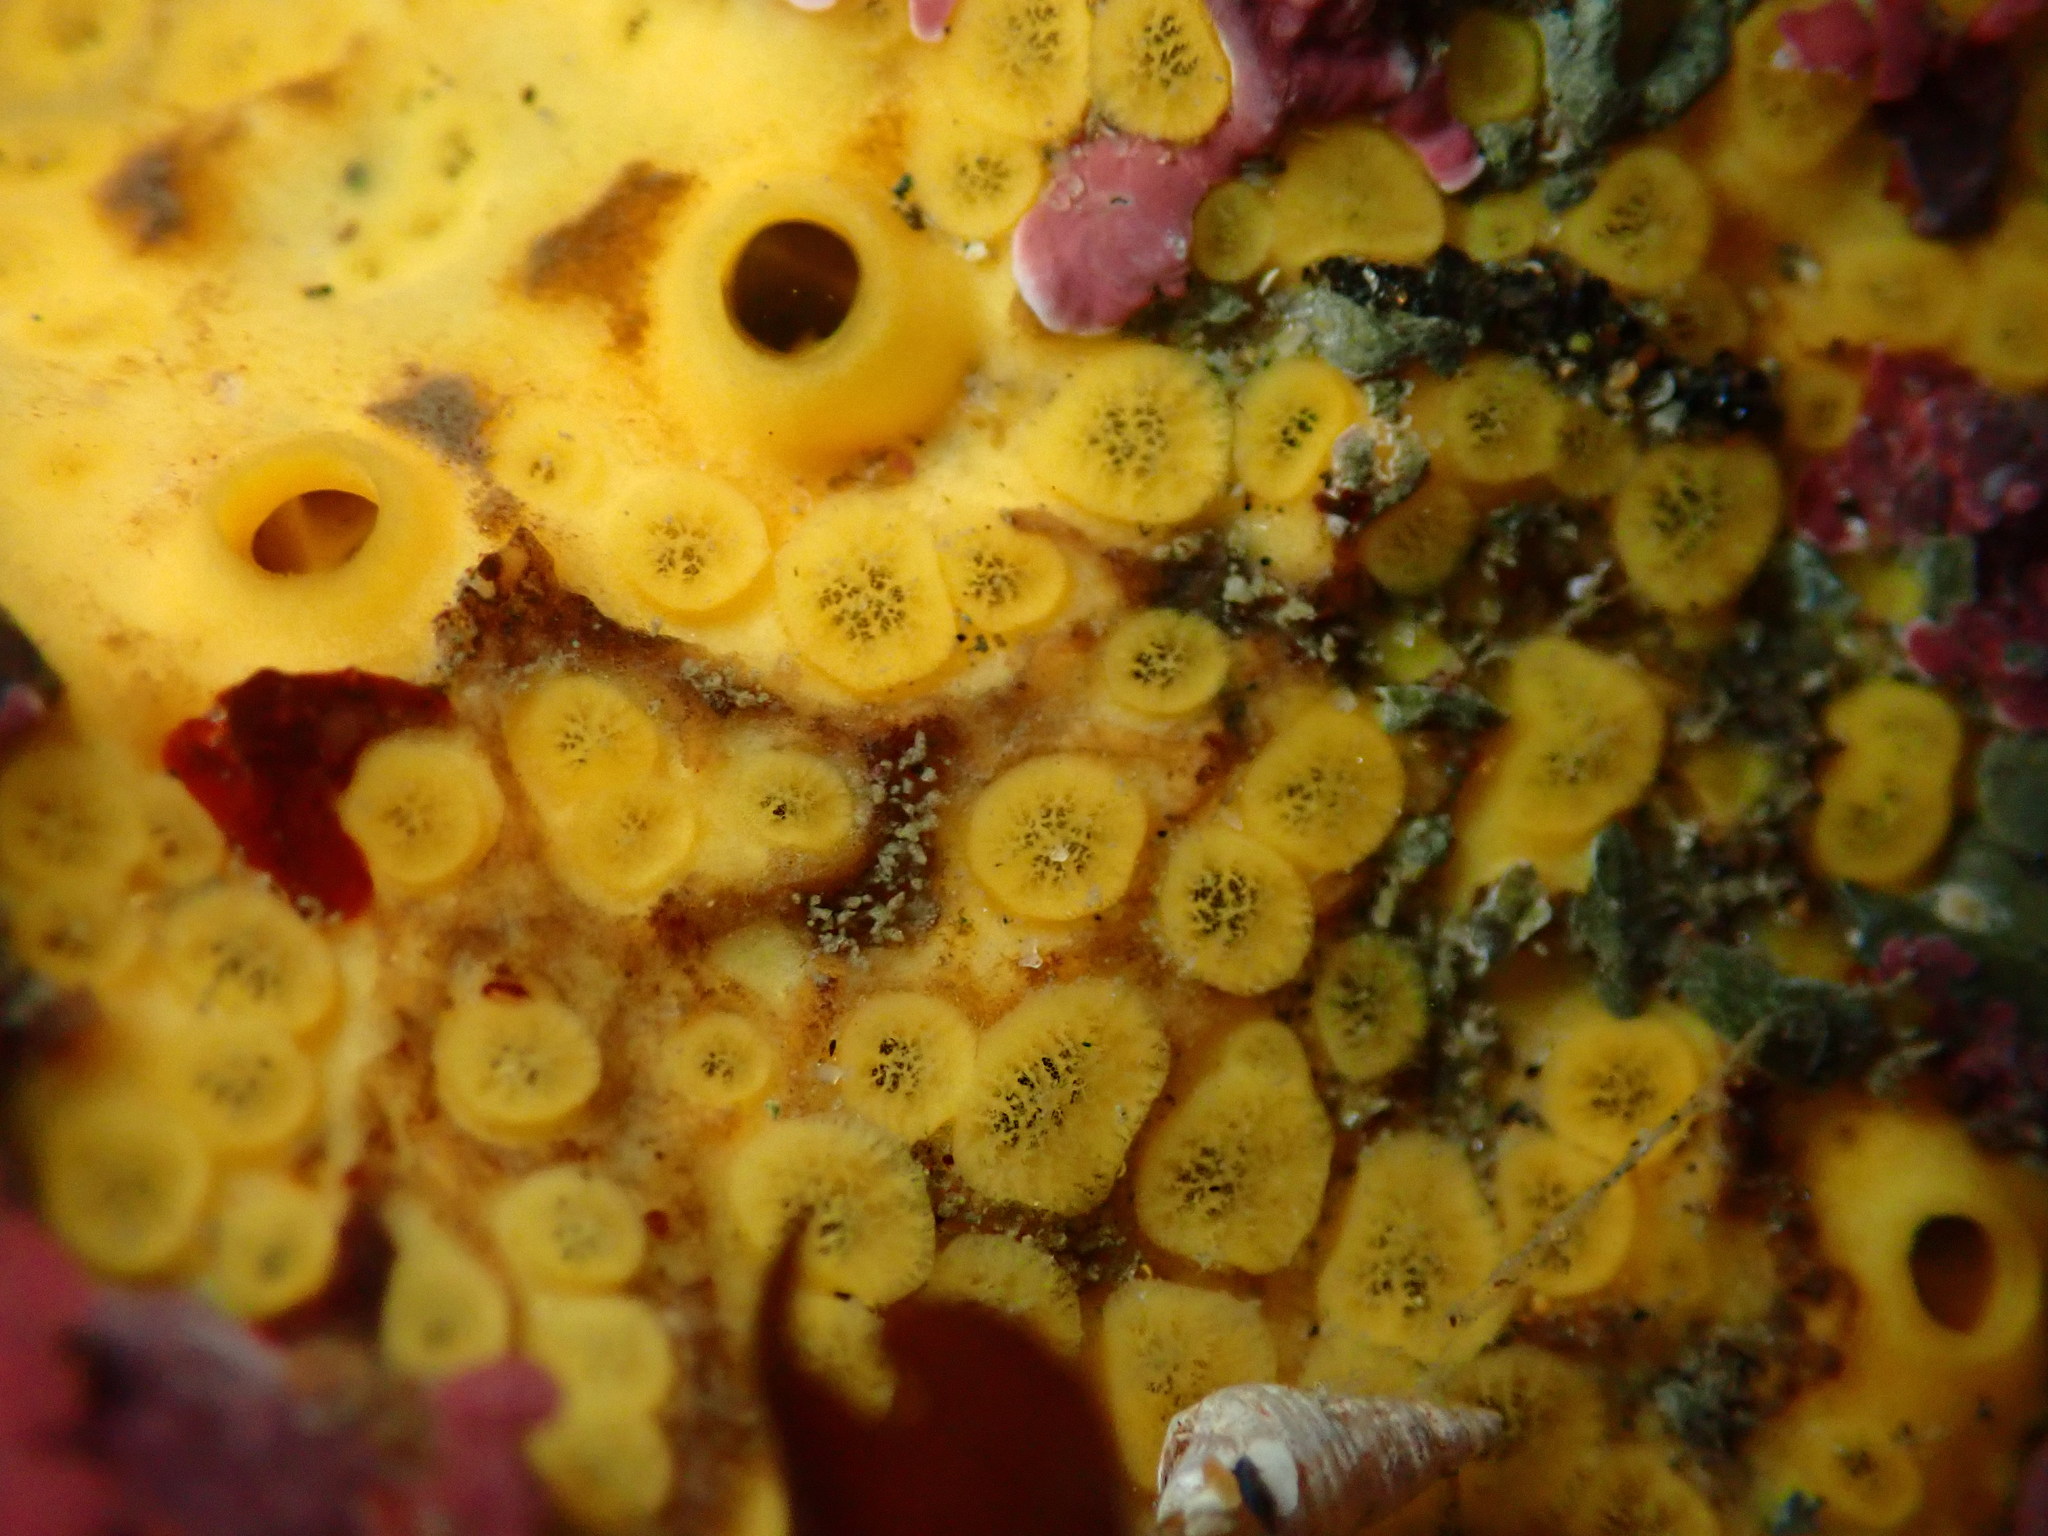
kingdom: Animalia
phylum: Porifera
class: Demospongiae
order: Clionaida
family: Clionaidae
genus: Cliona
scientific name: Cliona californiana
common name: California boring horny sponge
